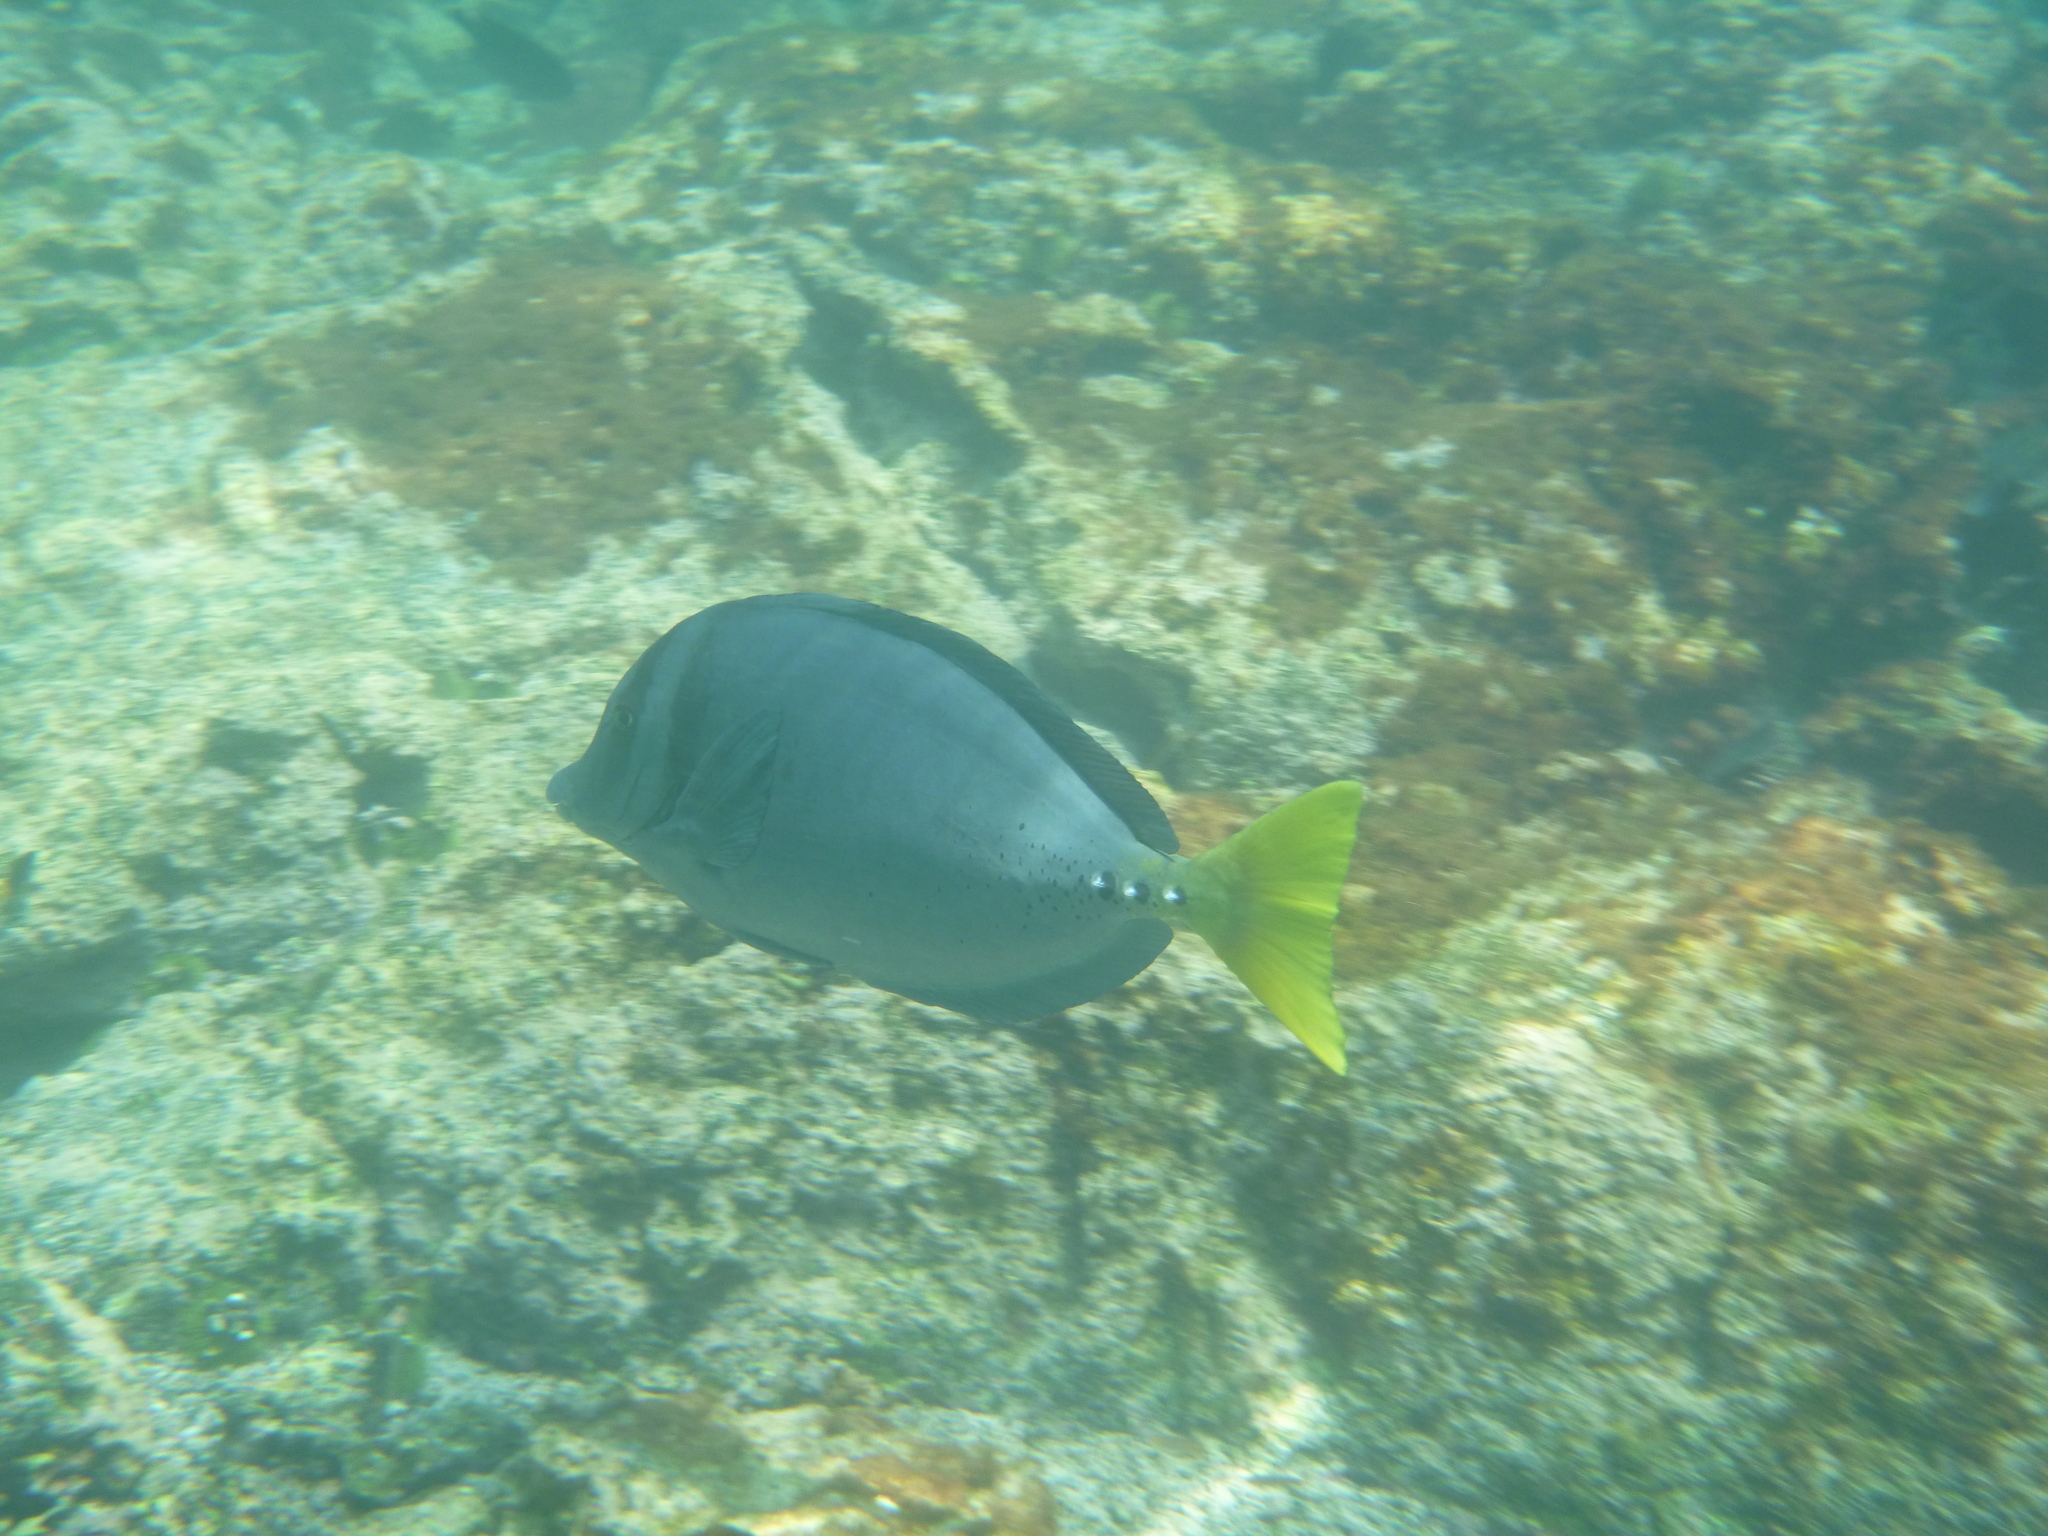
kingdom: Animalia
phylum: Chordata
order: Perciformes
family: Acanthuridae
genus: Prionurus
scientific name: Prionurus laticlavius
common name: Razor surgeonfish
